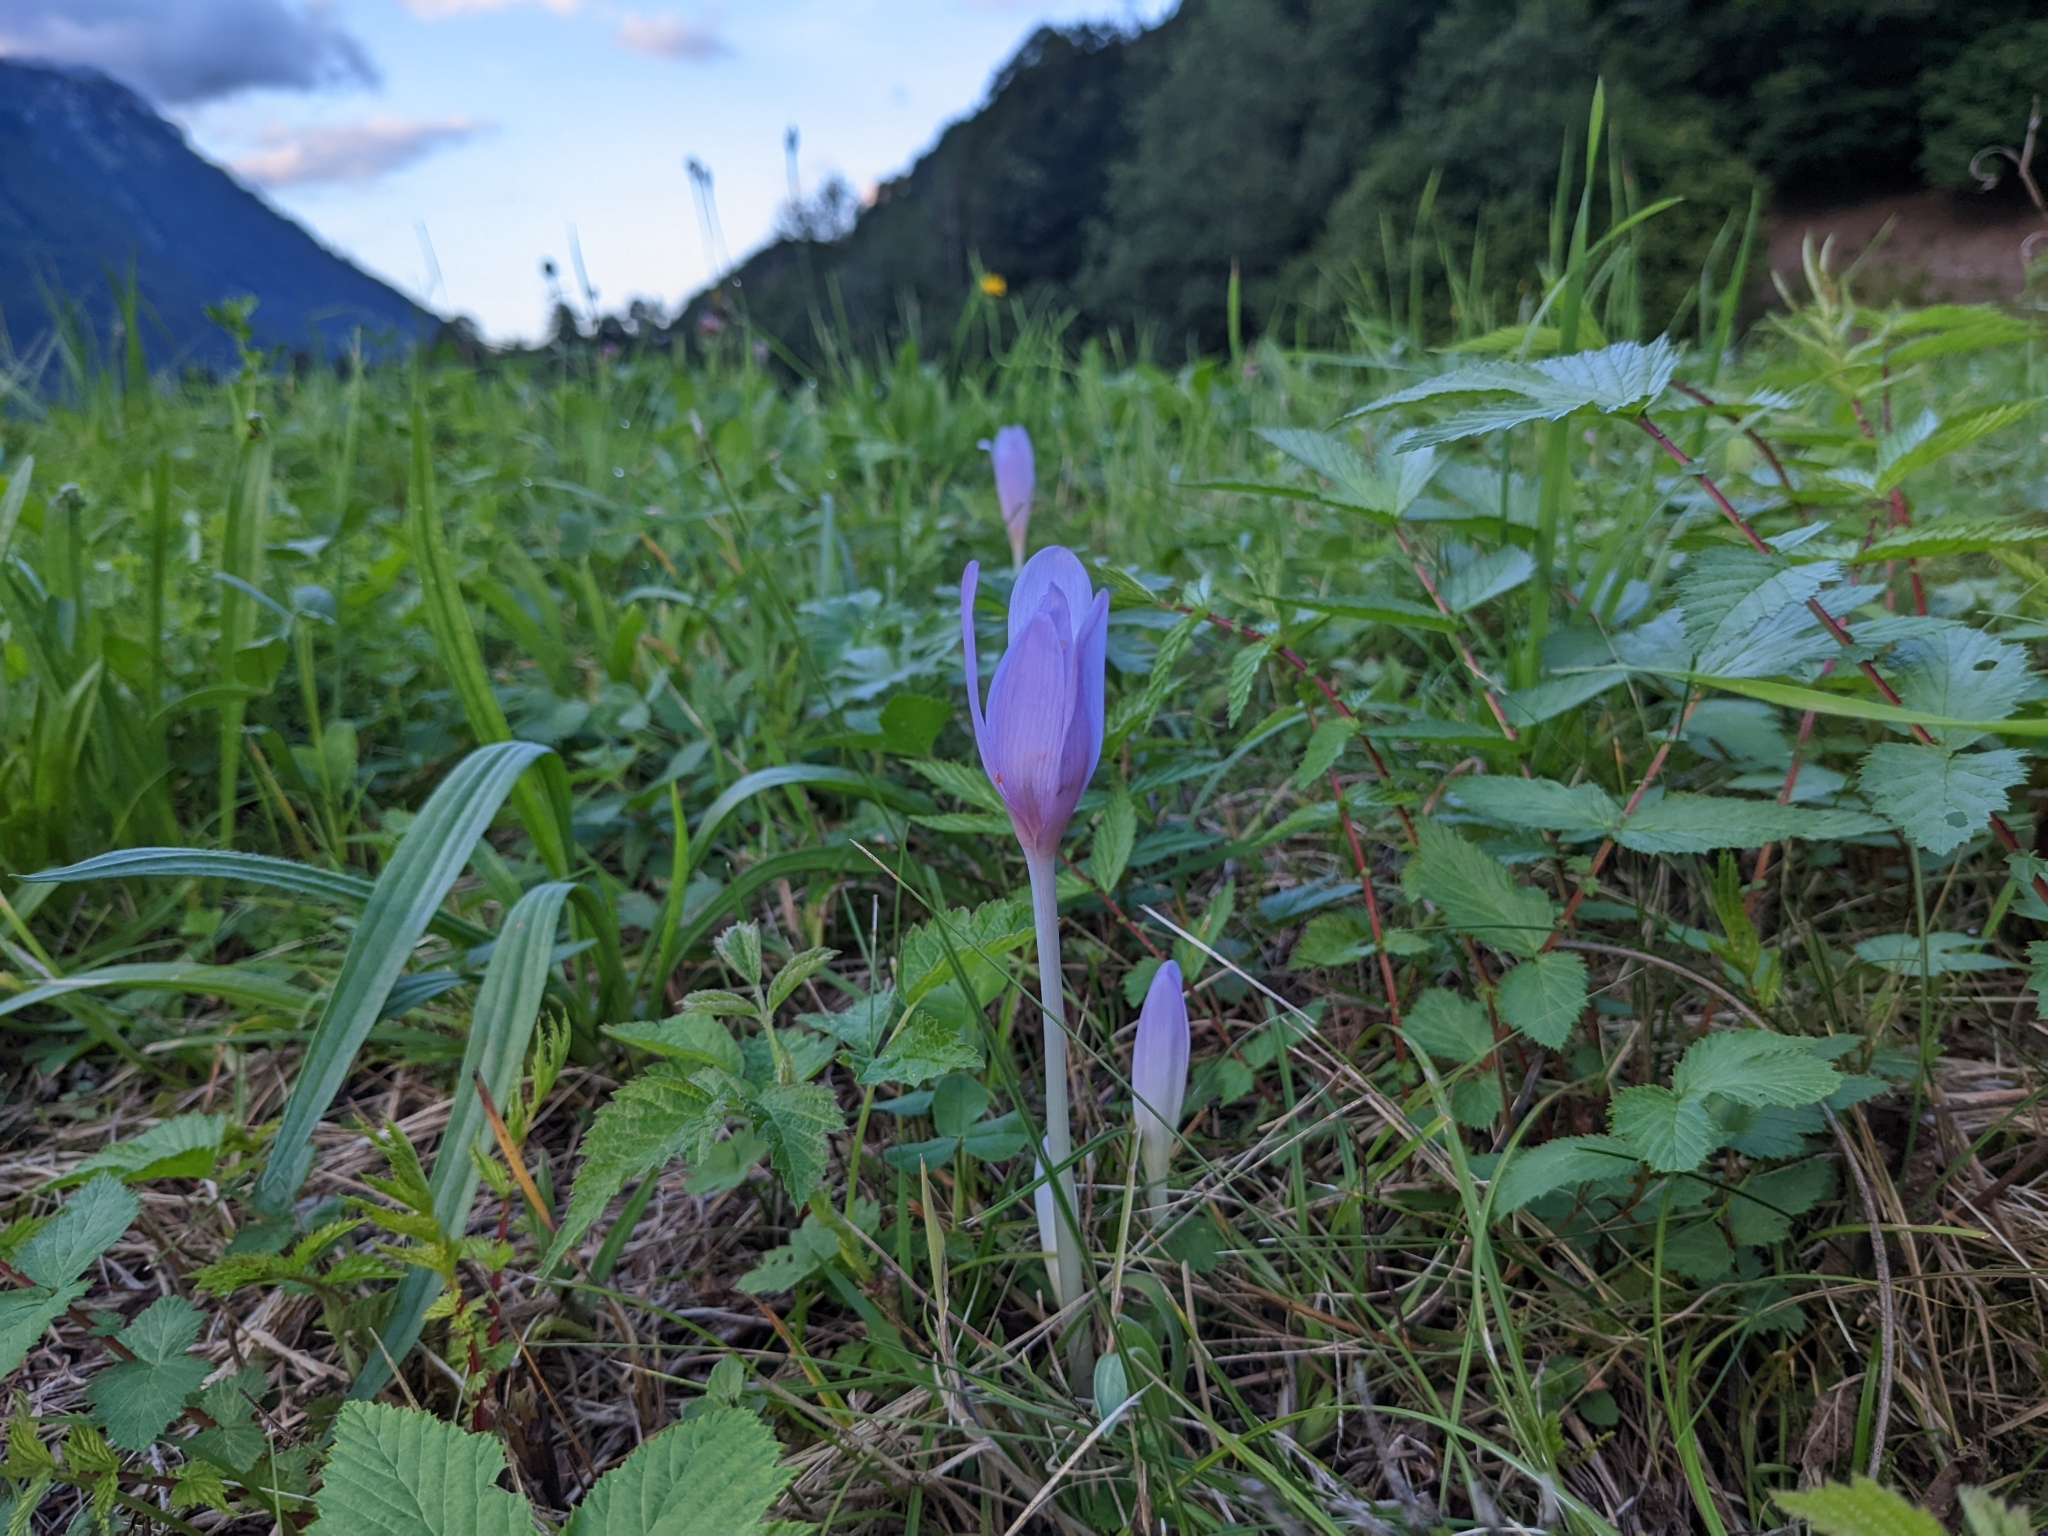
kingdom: Plantae
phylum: Tracheophyta
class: Liliopsida
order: Liliales
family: Colchicaceae
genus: Colchicum
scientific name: Colchicum autumnale
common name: Autumn crocus
